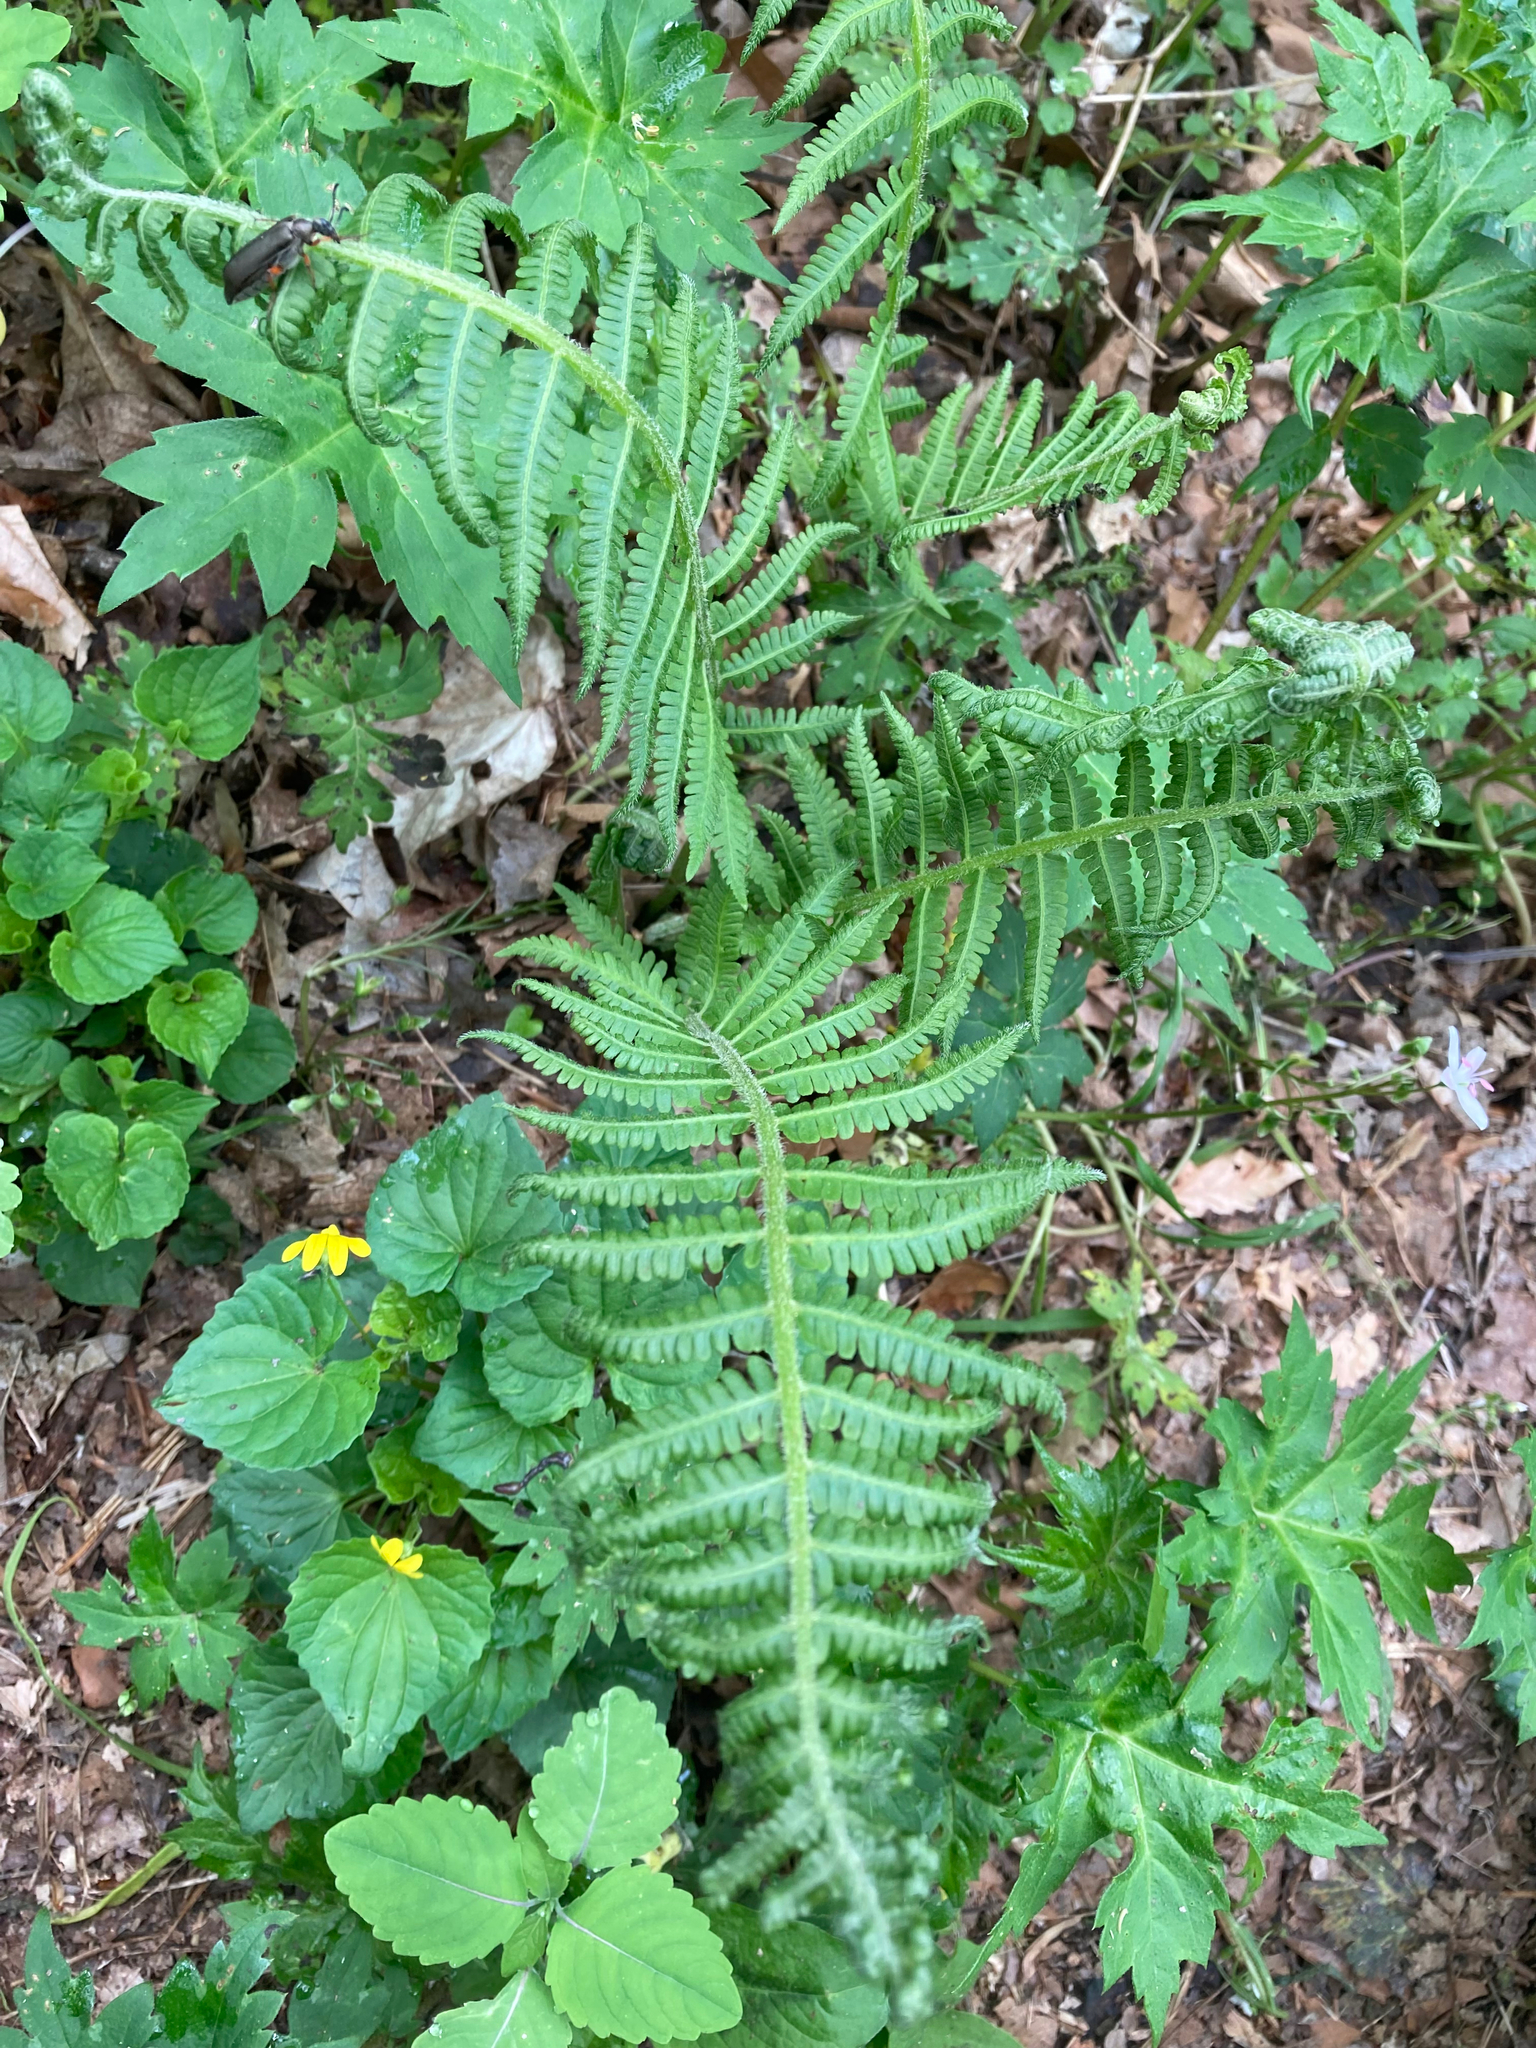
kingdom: Plantae
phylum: Tracheophyta
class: Polypodiopsida
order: Polypodiales
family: Athyriaceae
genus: Deparia
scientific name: Deparia acrostichoides
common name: Silver false spleenwort
